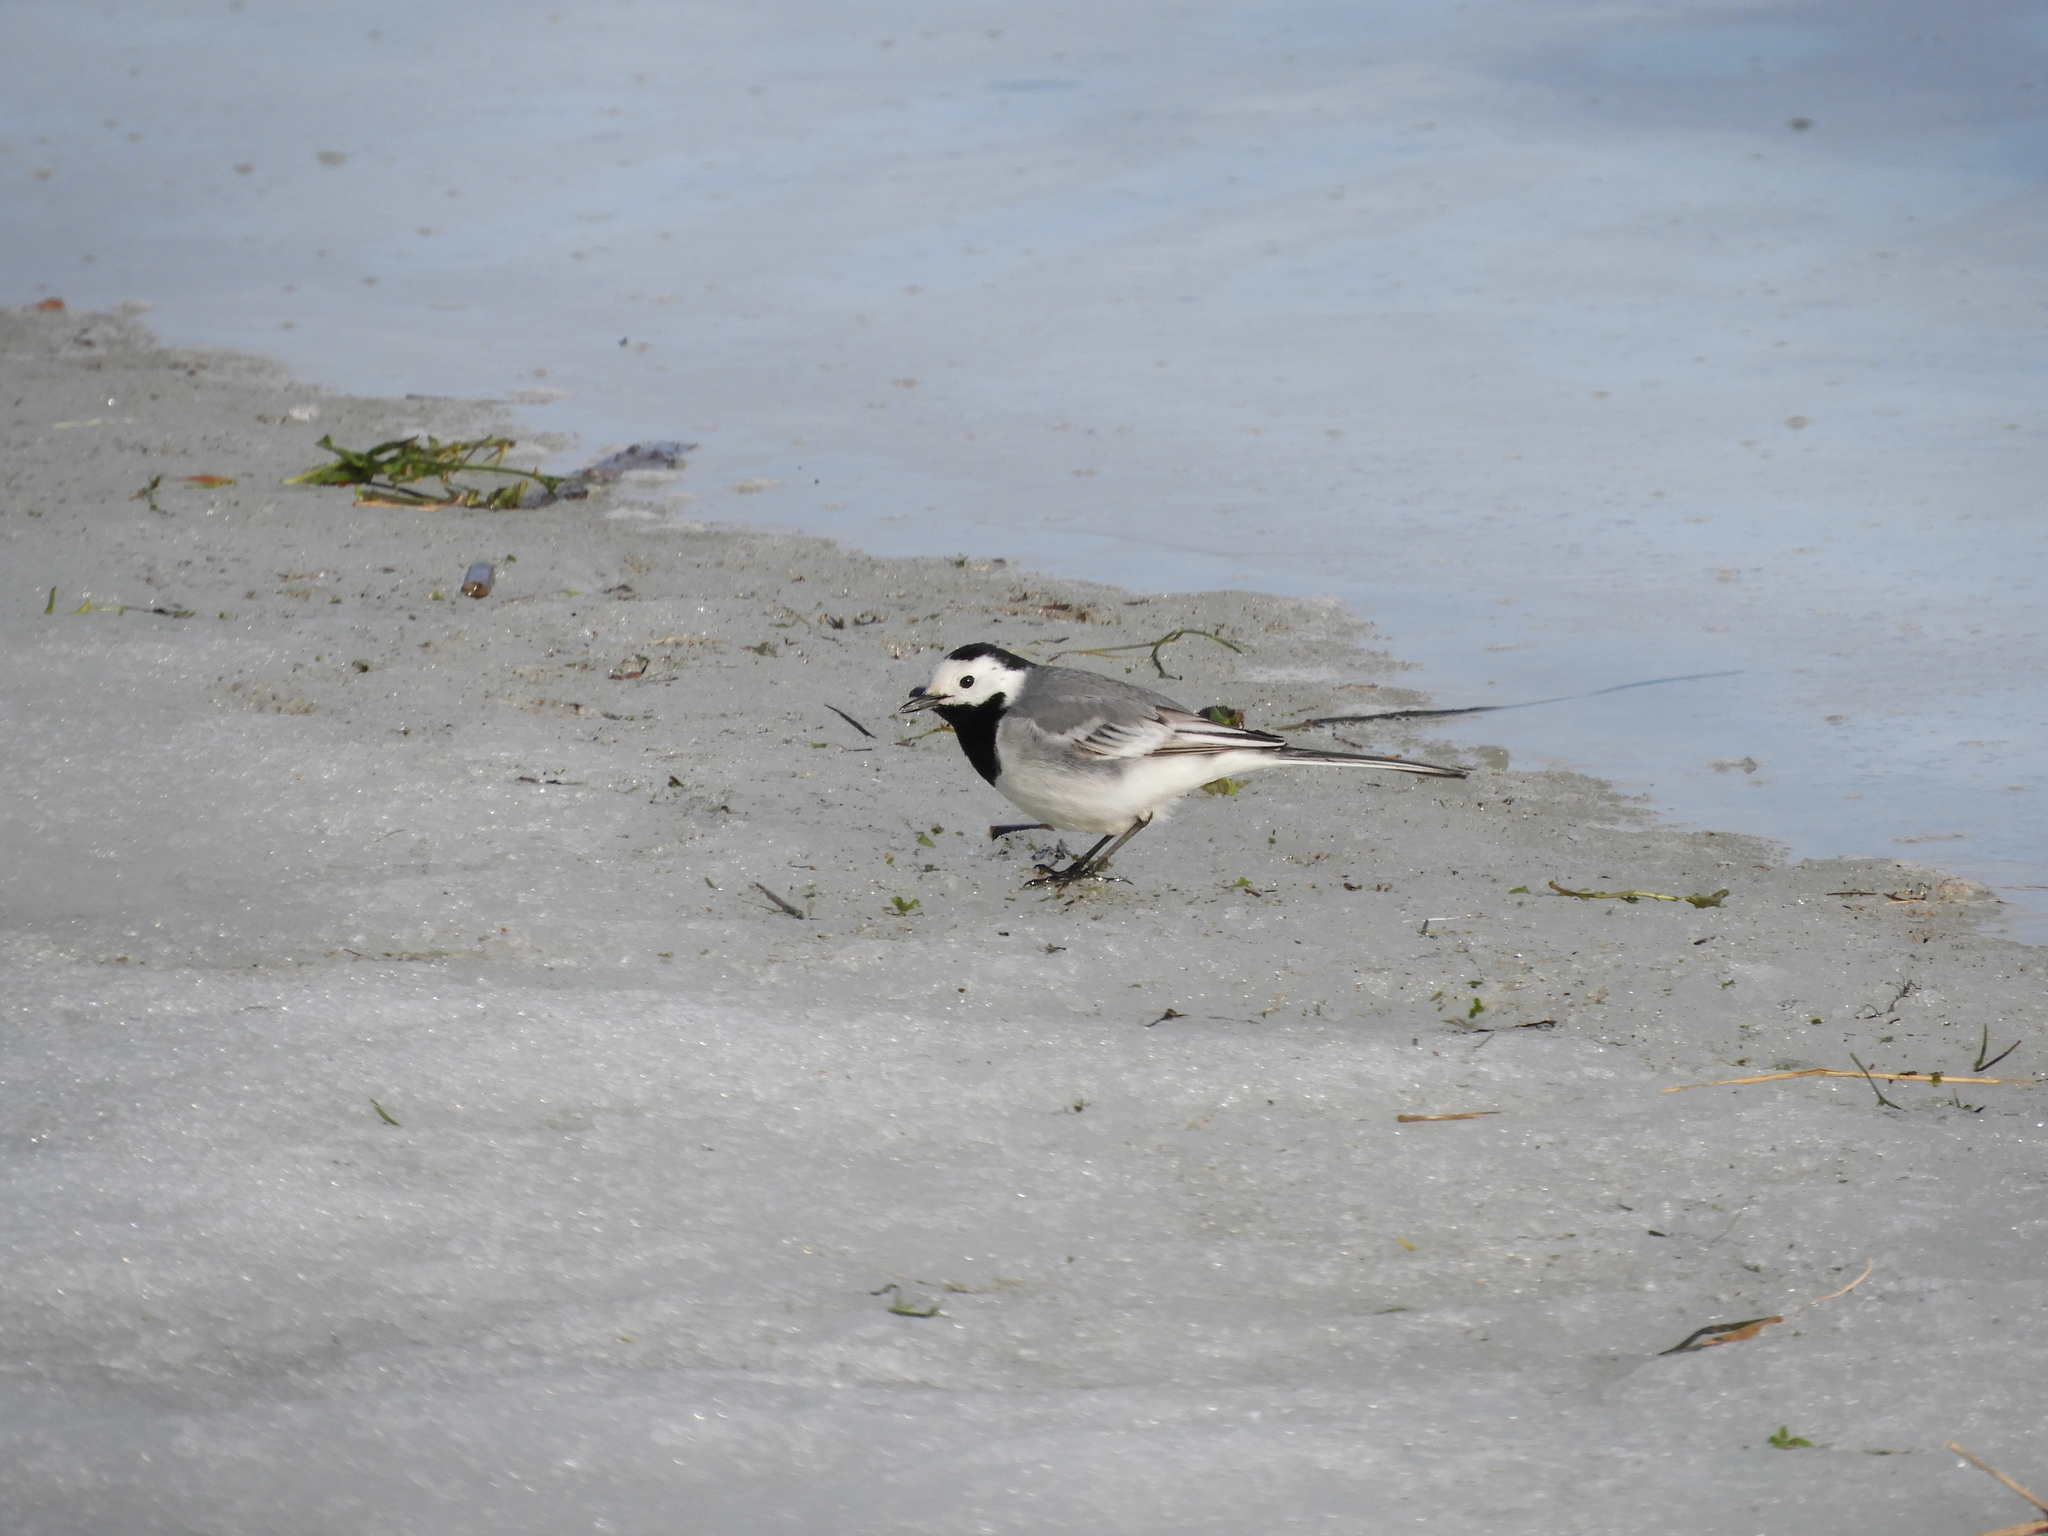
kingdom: Animalia
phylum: Chordata
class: Aves
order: Passeriformes
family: Motacillidae
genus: Motacilla
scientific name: Motacilla alba
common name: White wagtail
